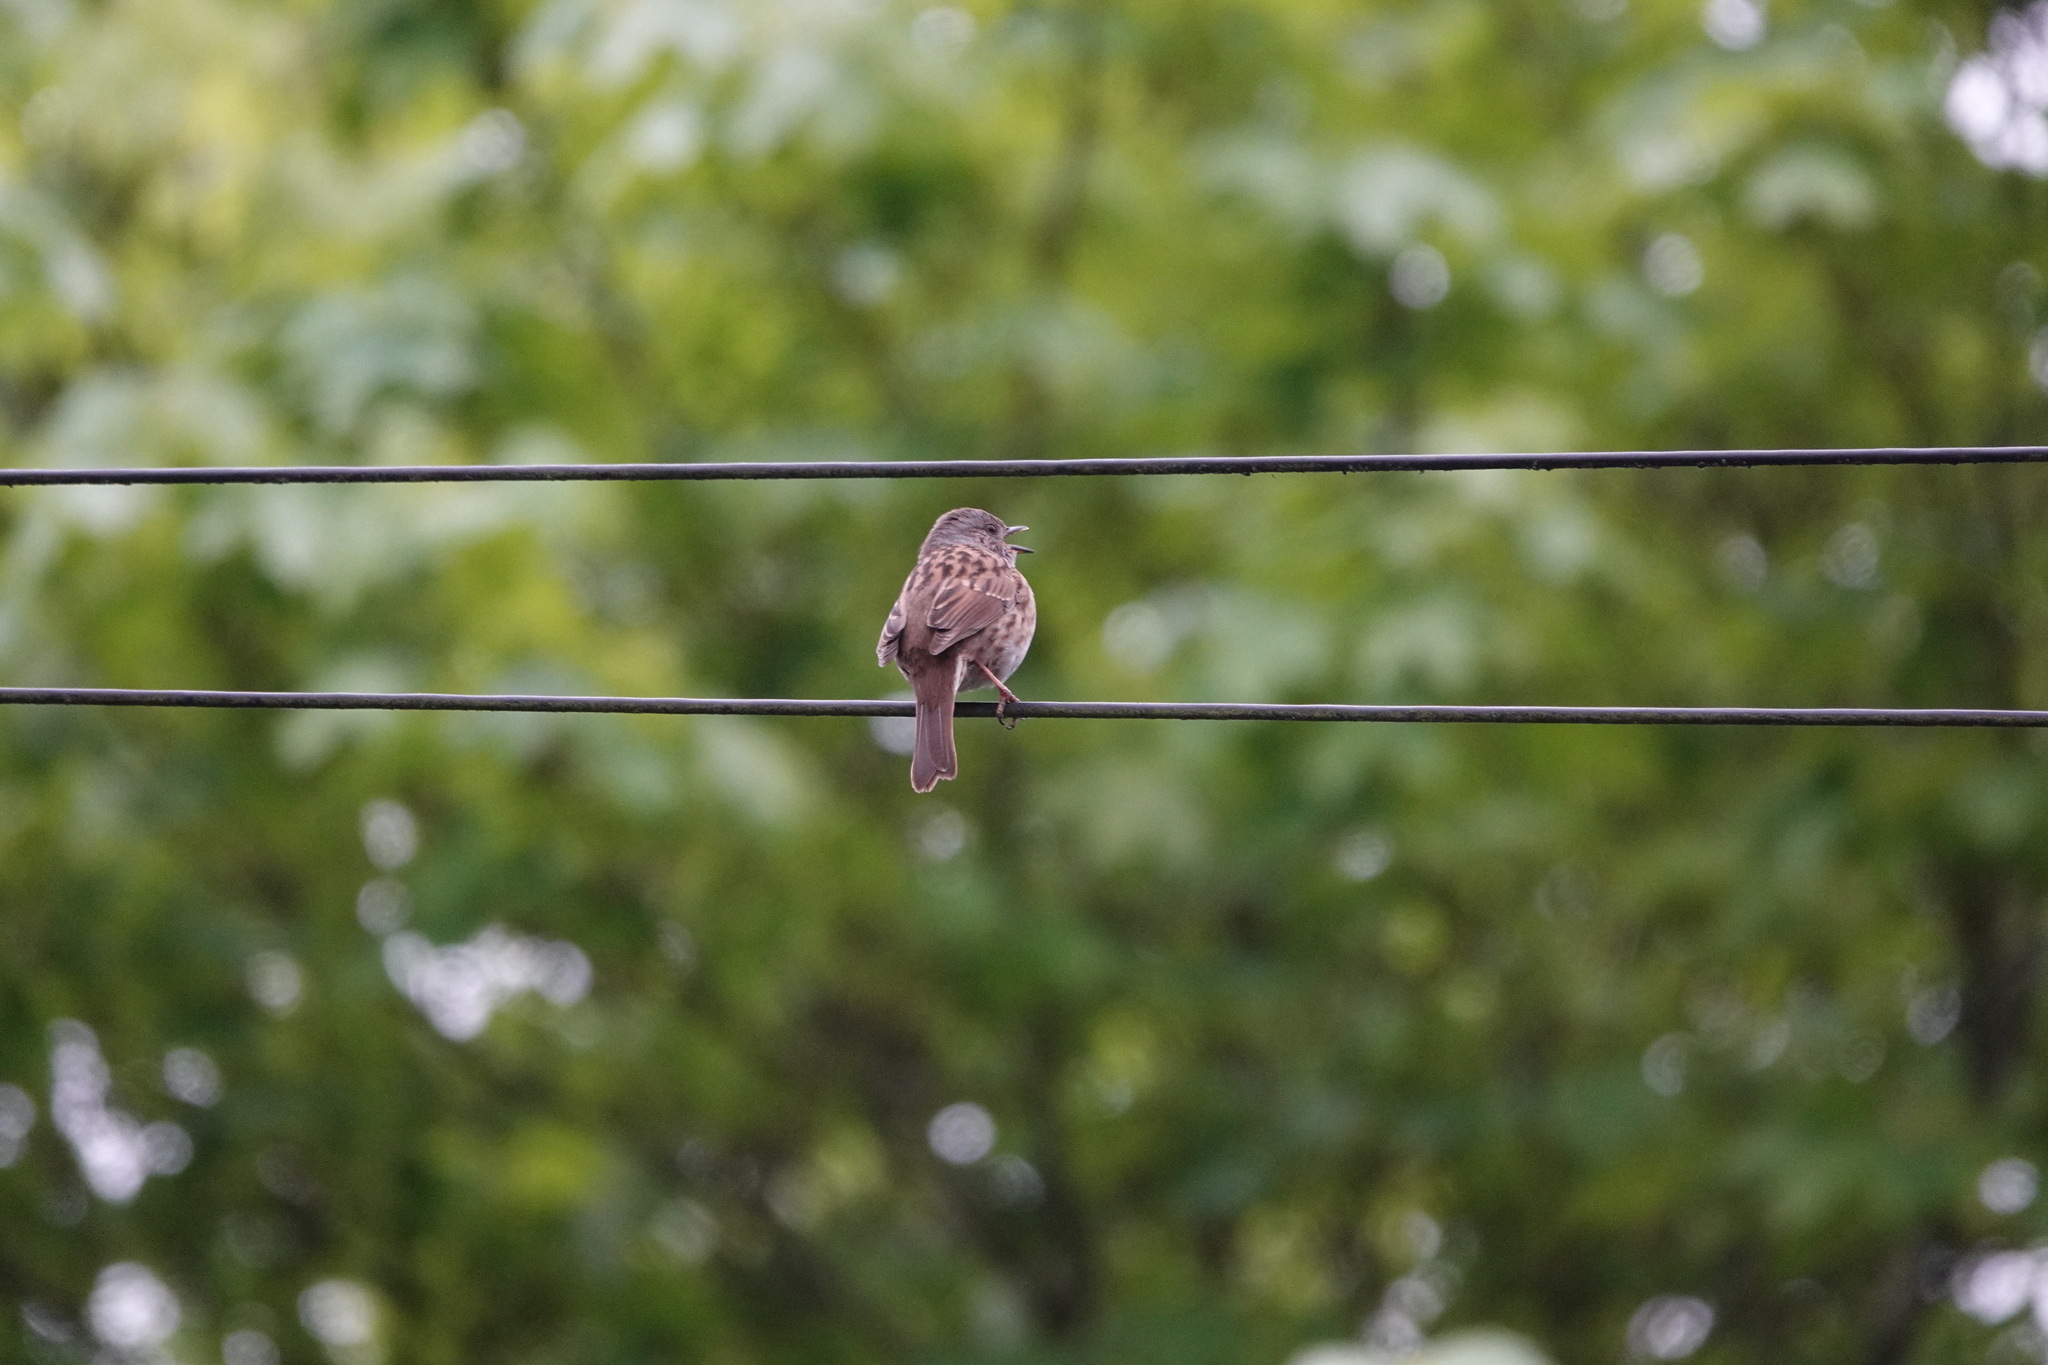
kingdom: Animalia
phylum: Chordata
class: Aves
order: Passeriformes
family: Prunellidae
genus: Prunella
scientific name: Prunella modularis
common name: Dunnock
